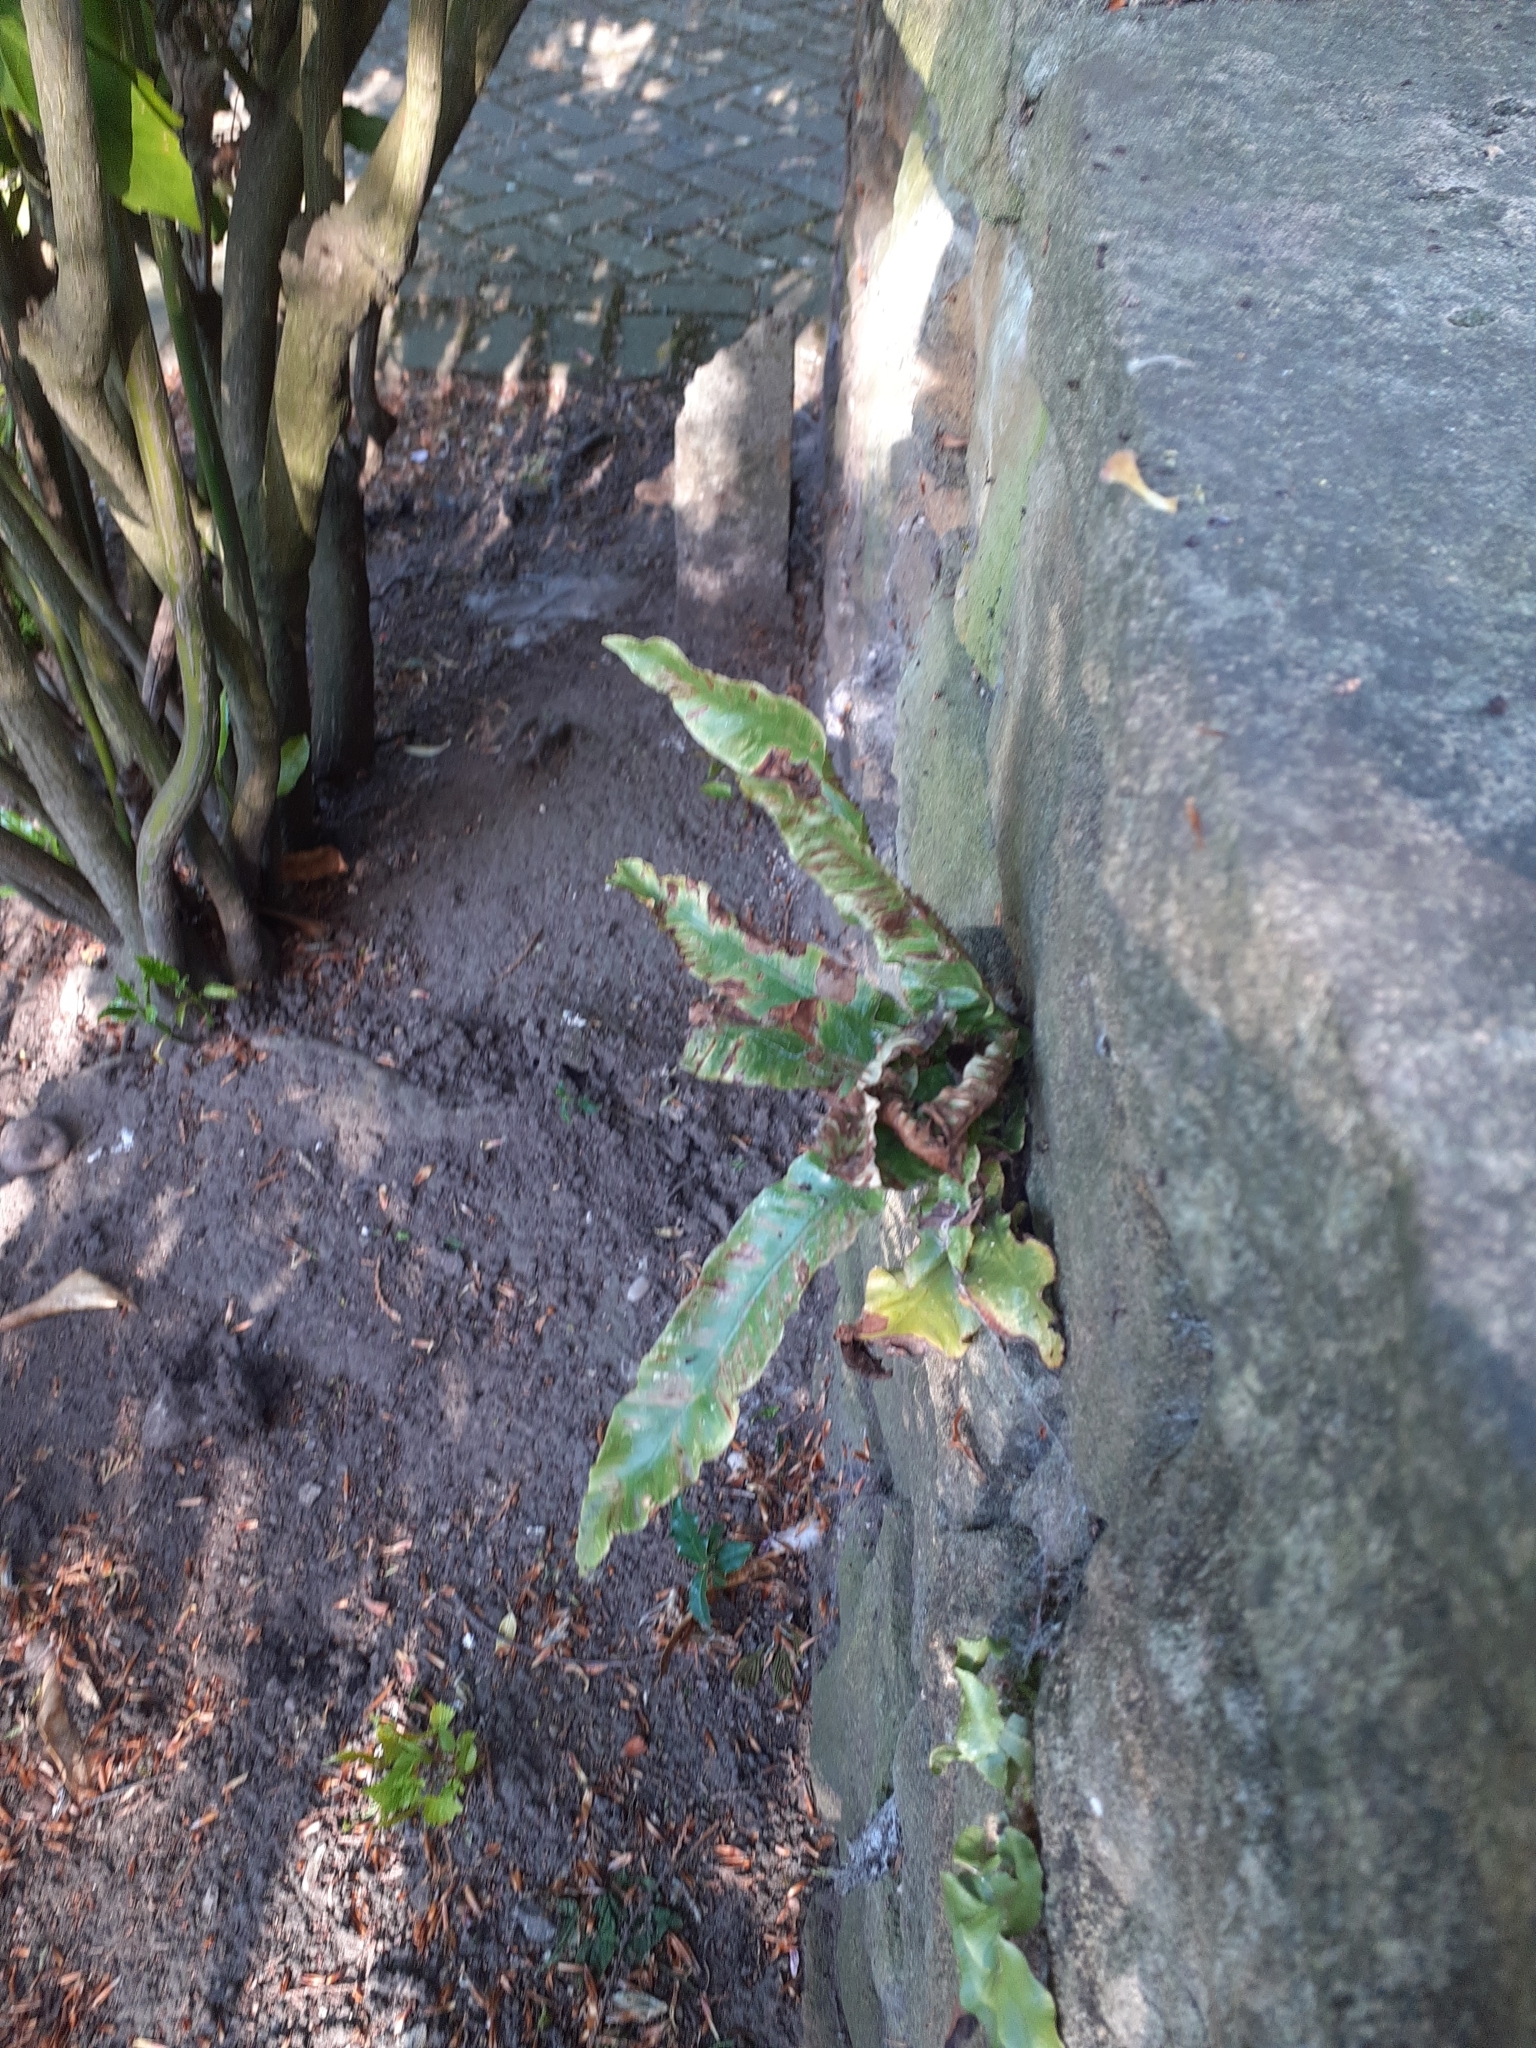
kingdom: Plantae
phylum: Tracheophyta
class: Polypodiopsida
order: Polypodiales
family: Aspleniaceae
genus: Asplenium
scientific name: Asplenium scolopendrium
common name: Hart's-tongue fern
